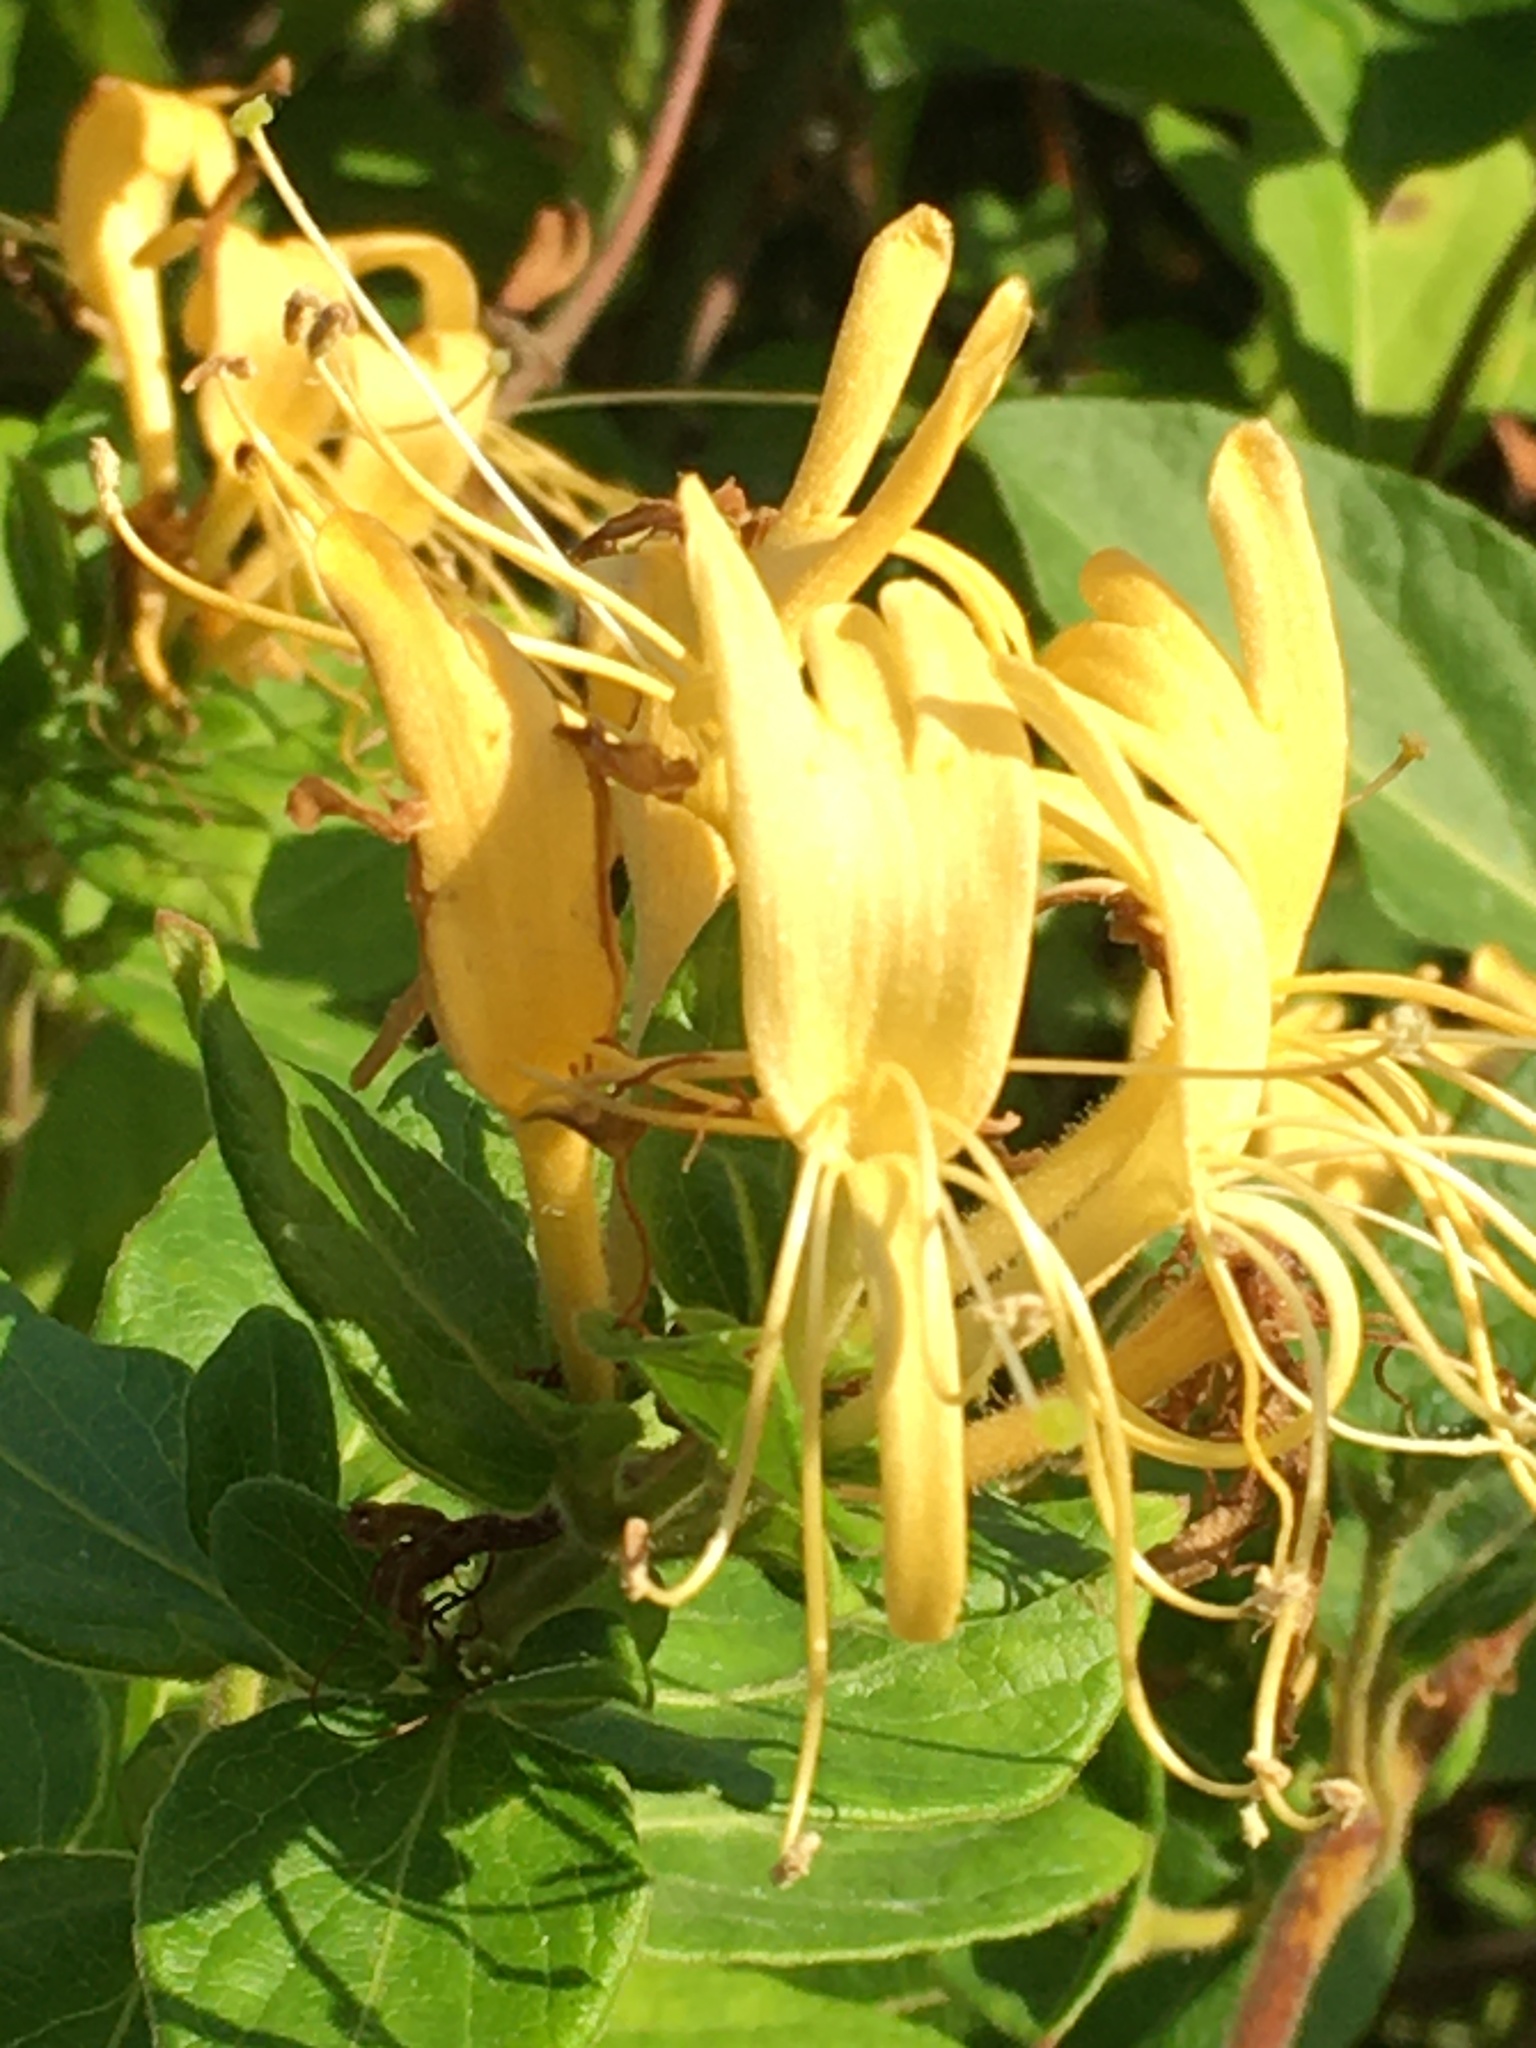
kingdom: Plantae
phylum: Tracheophyta
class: Magnoliopsida
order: Dipsacales
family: Caprifoliaceae
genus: Lonicera
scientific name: Lonicera japonica
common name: Japanese honeysuckle
